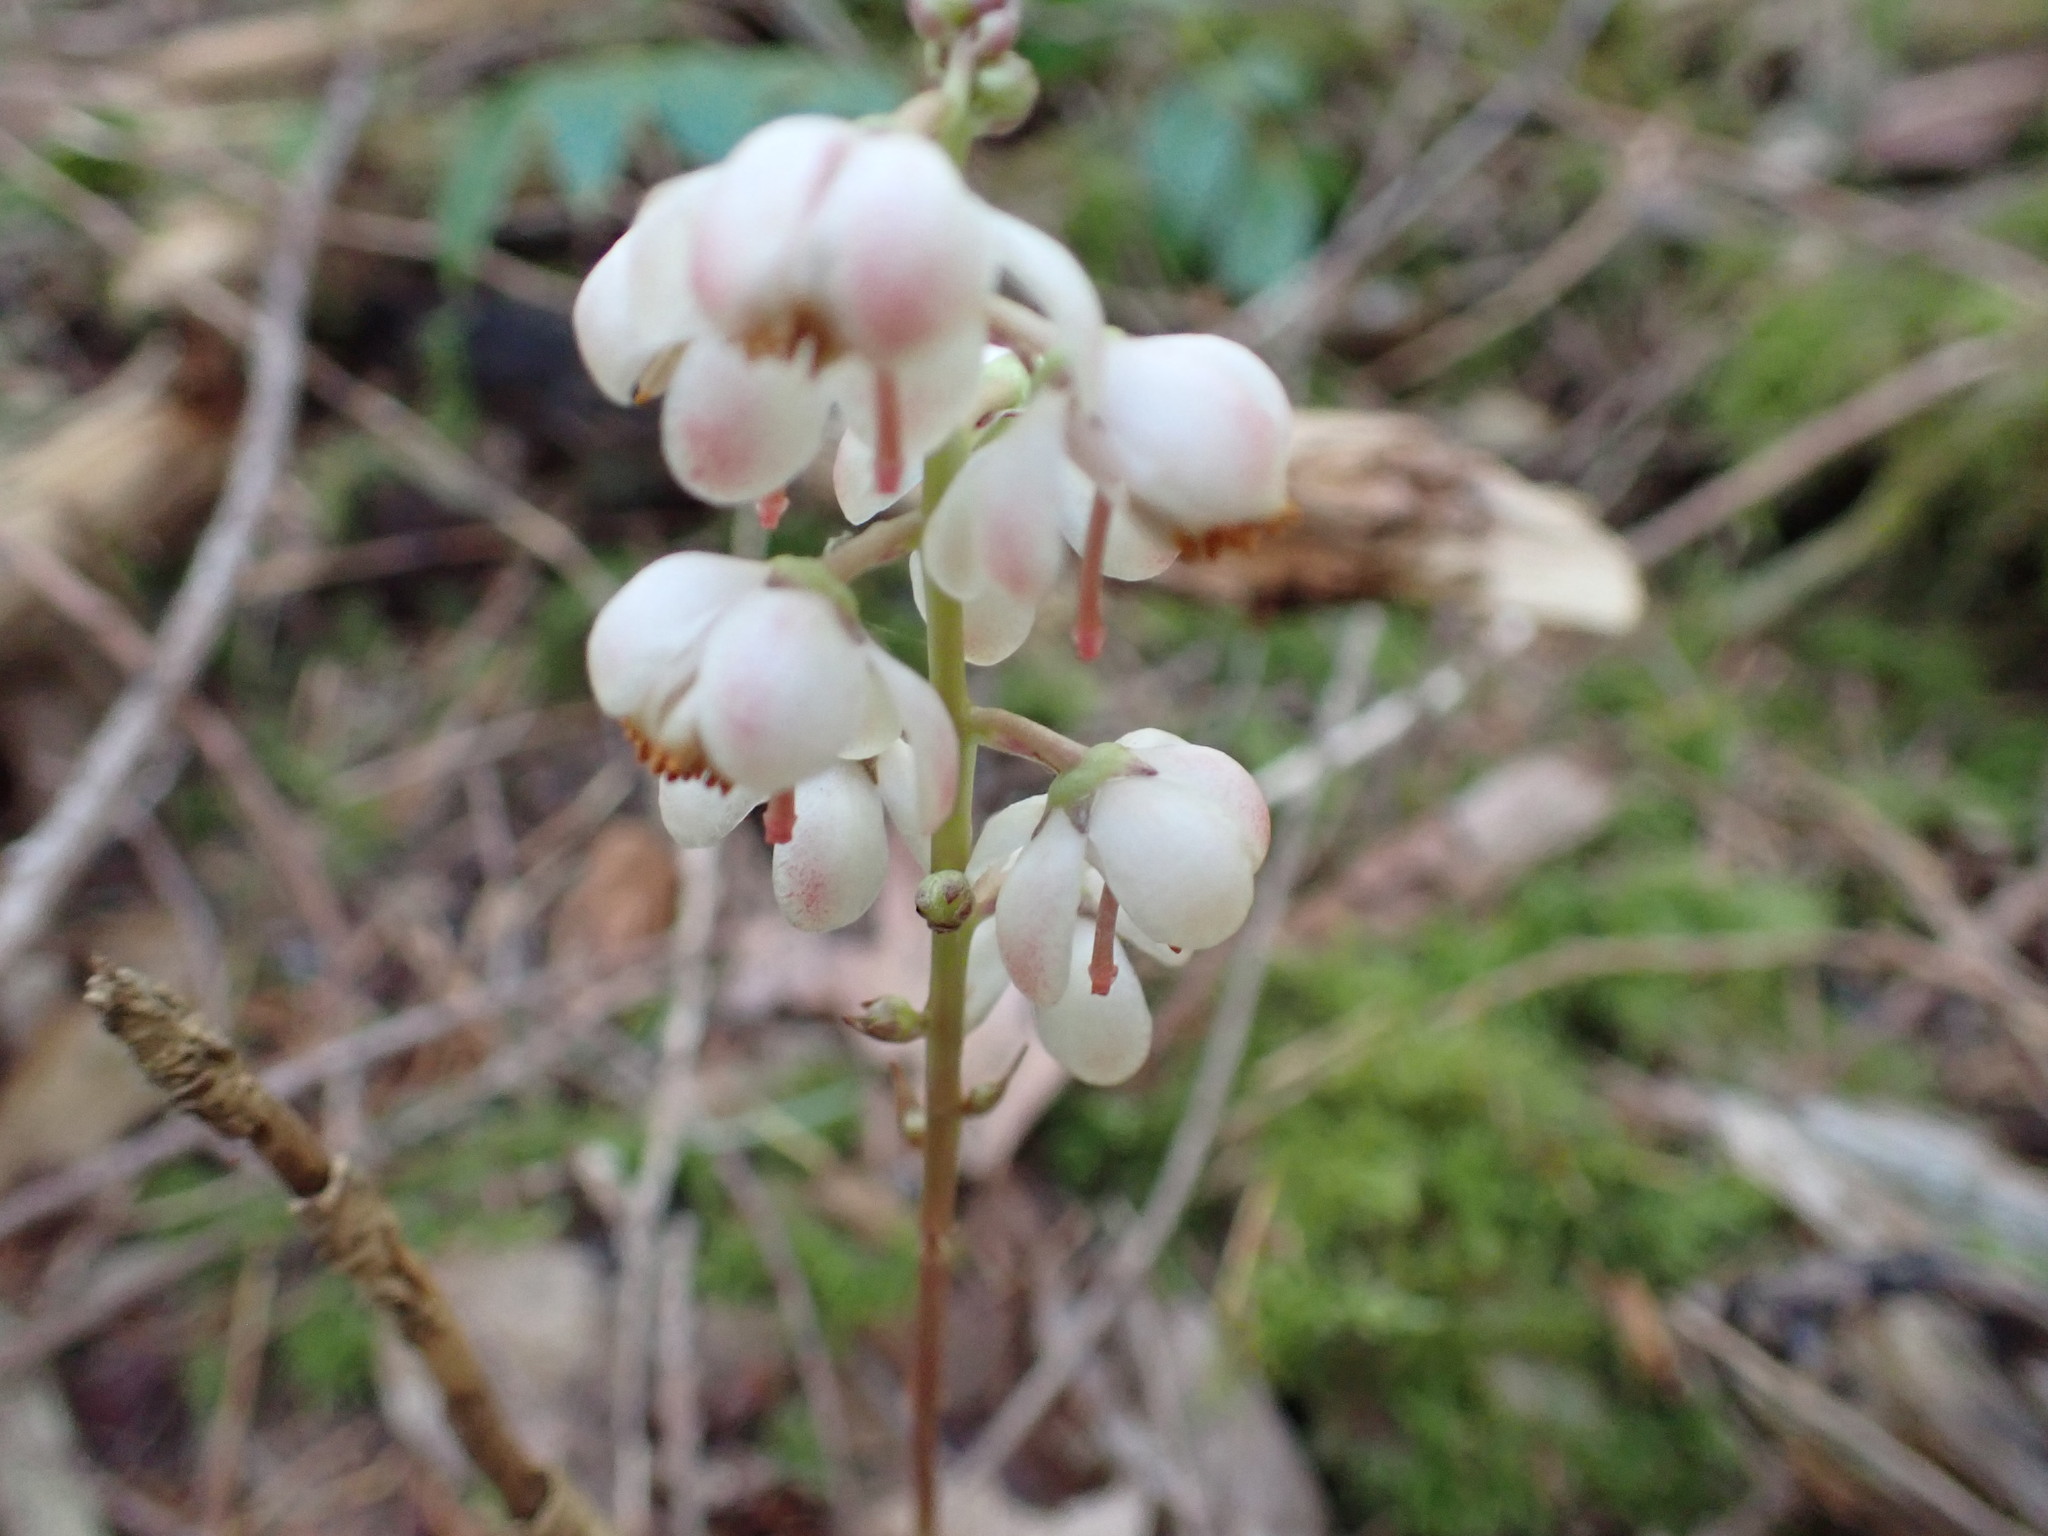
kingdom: Plantae
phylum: Tracheophyta
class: Magnoliopsida
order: Ericales
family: Ericaceae
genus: Pyrola
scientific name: Pyrola aphylla
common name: Leafless wintergreen
